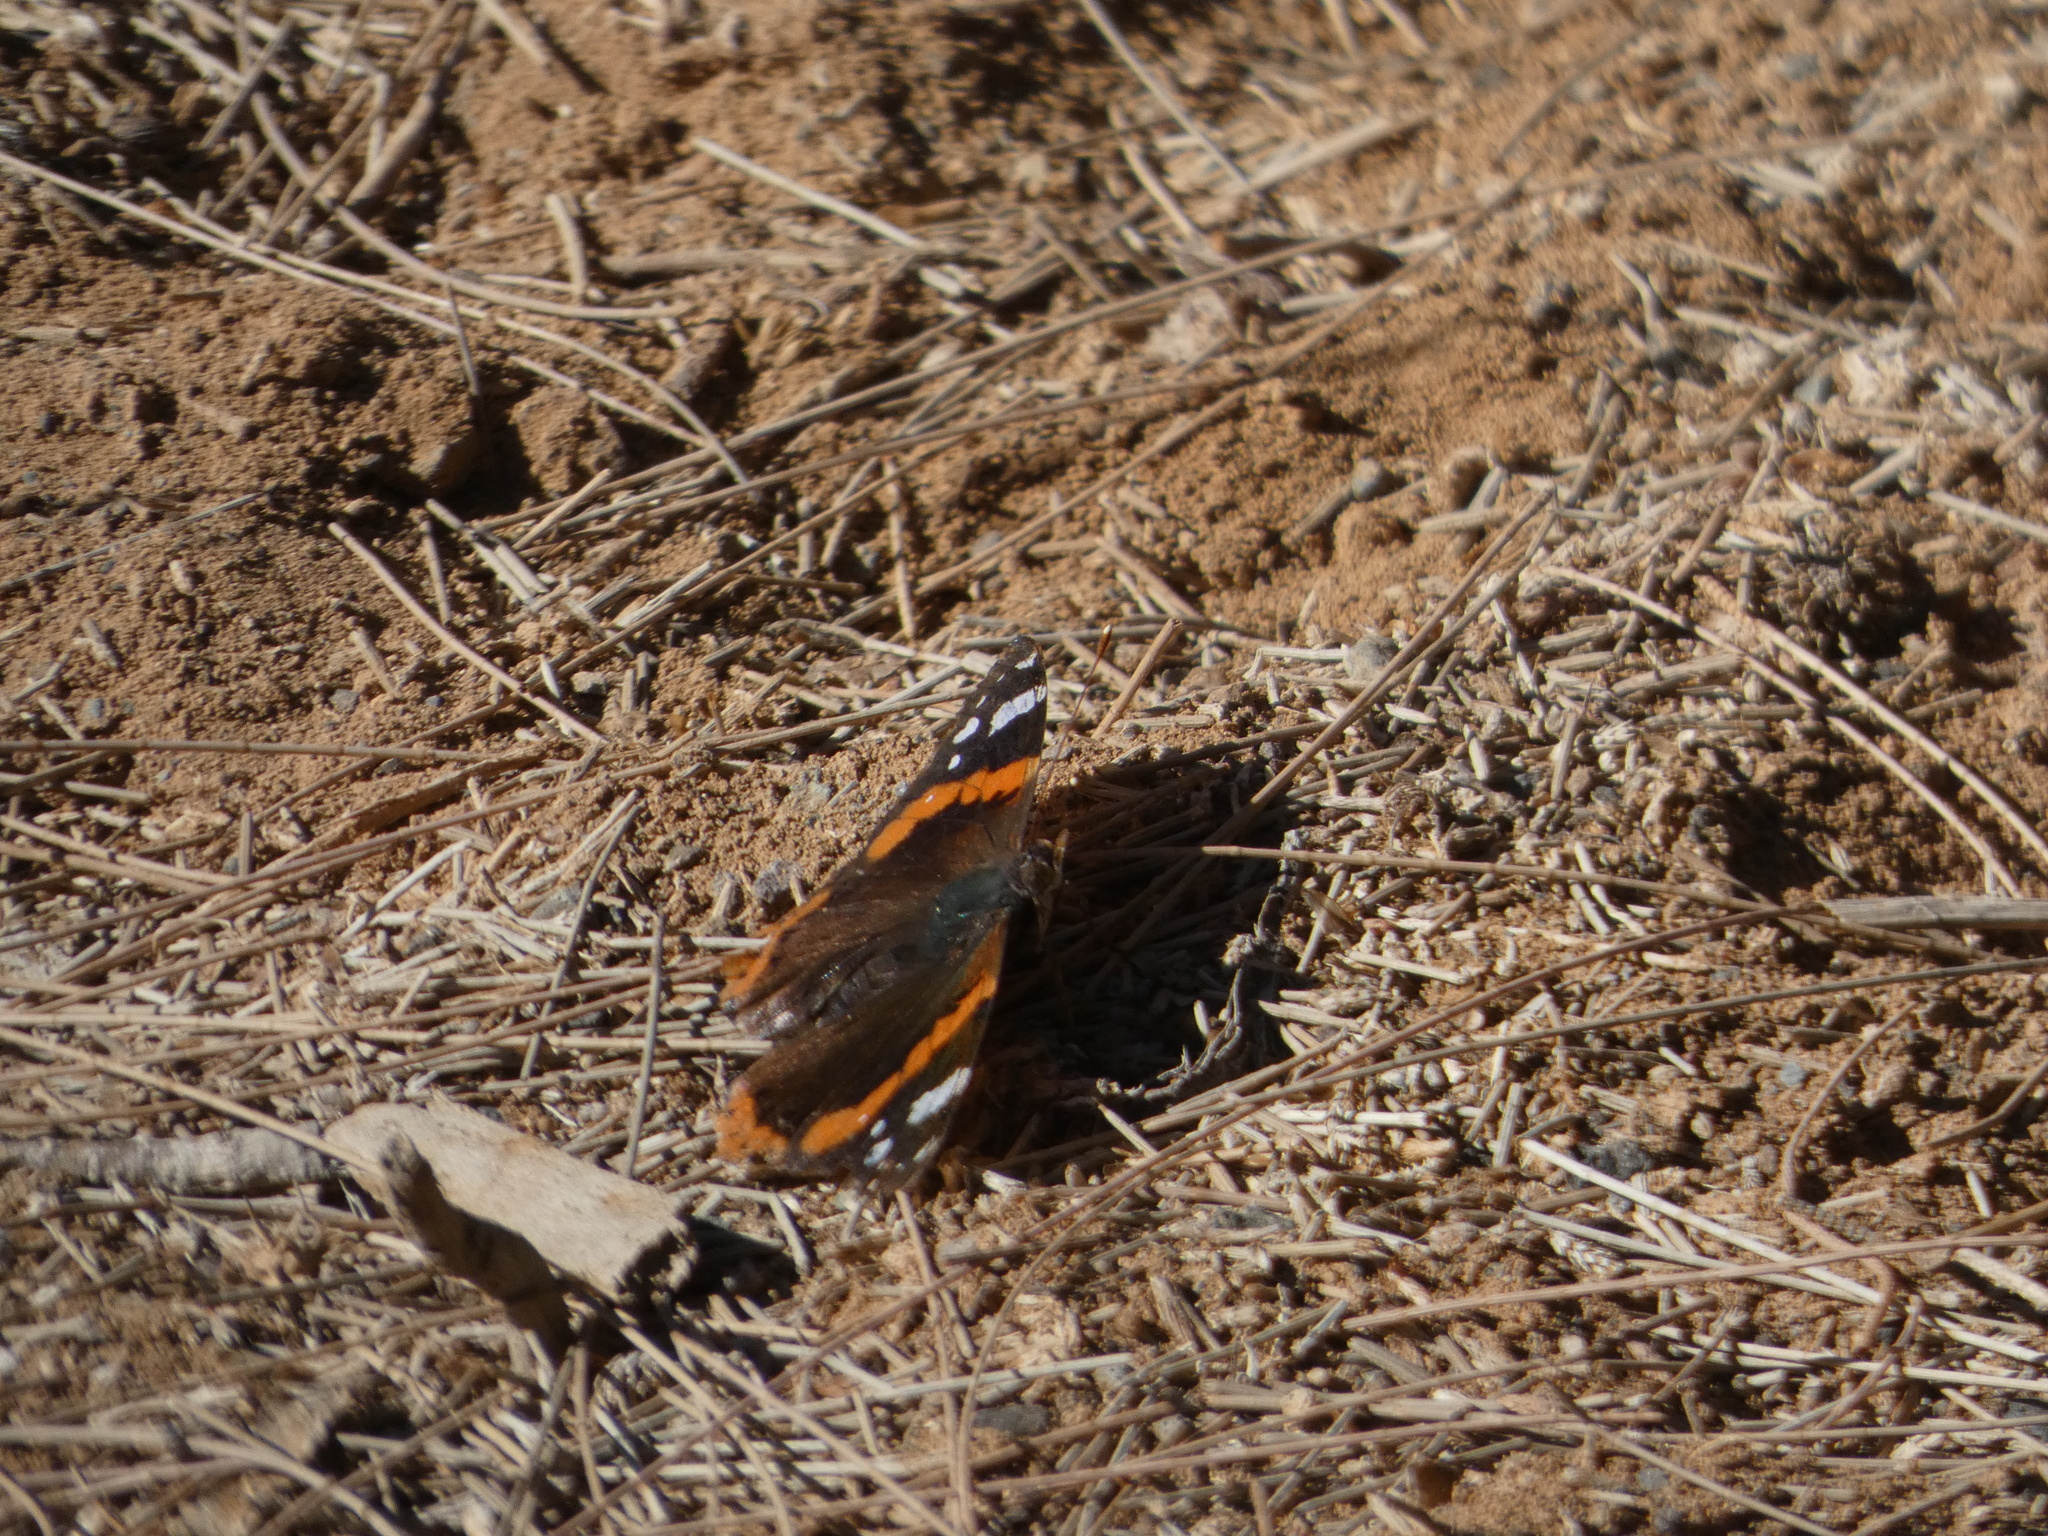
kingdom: Animalia
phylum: Arthropoda
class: Insecta
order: Lepidoptera
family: Nymphalidae
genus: Vanessa
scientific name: Vanessa atalanta
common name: Red admiral
